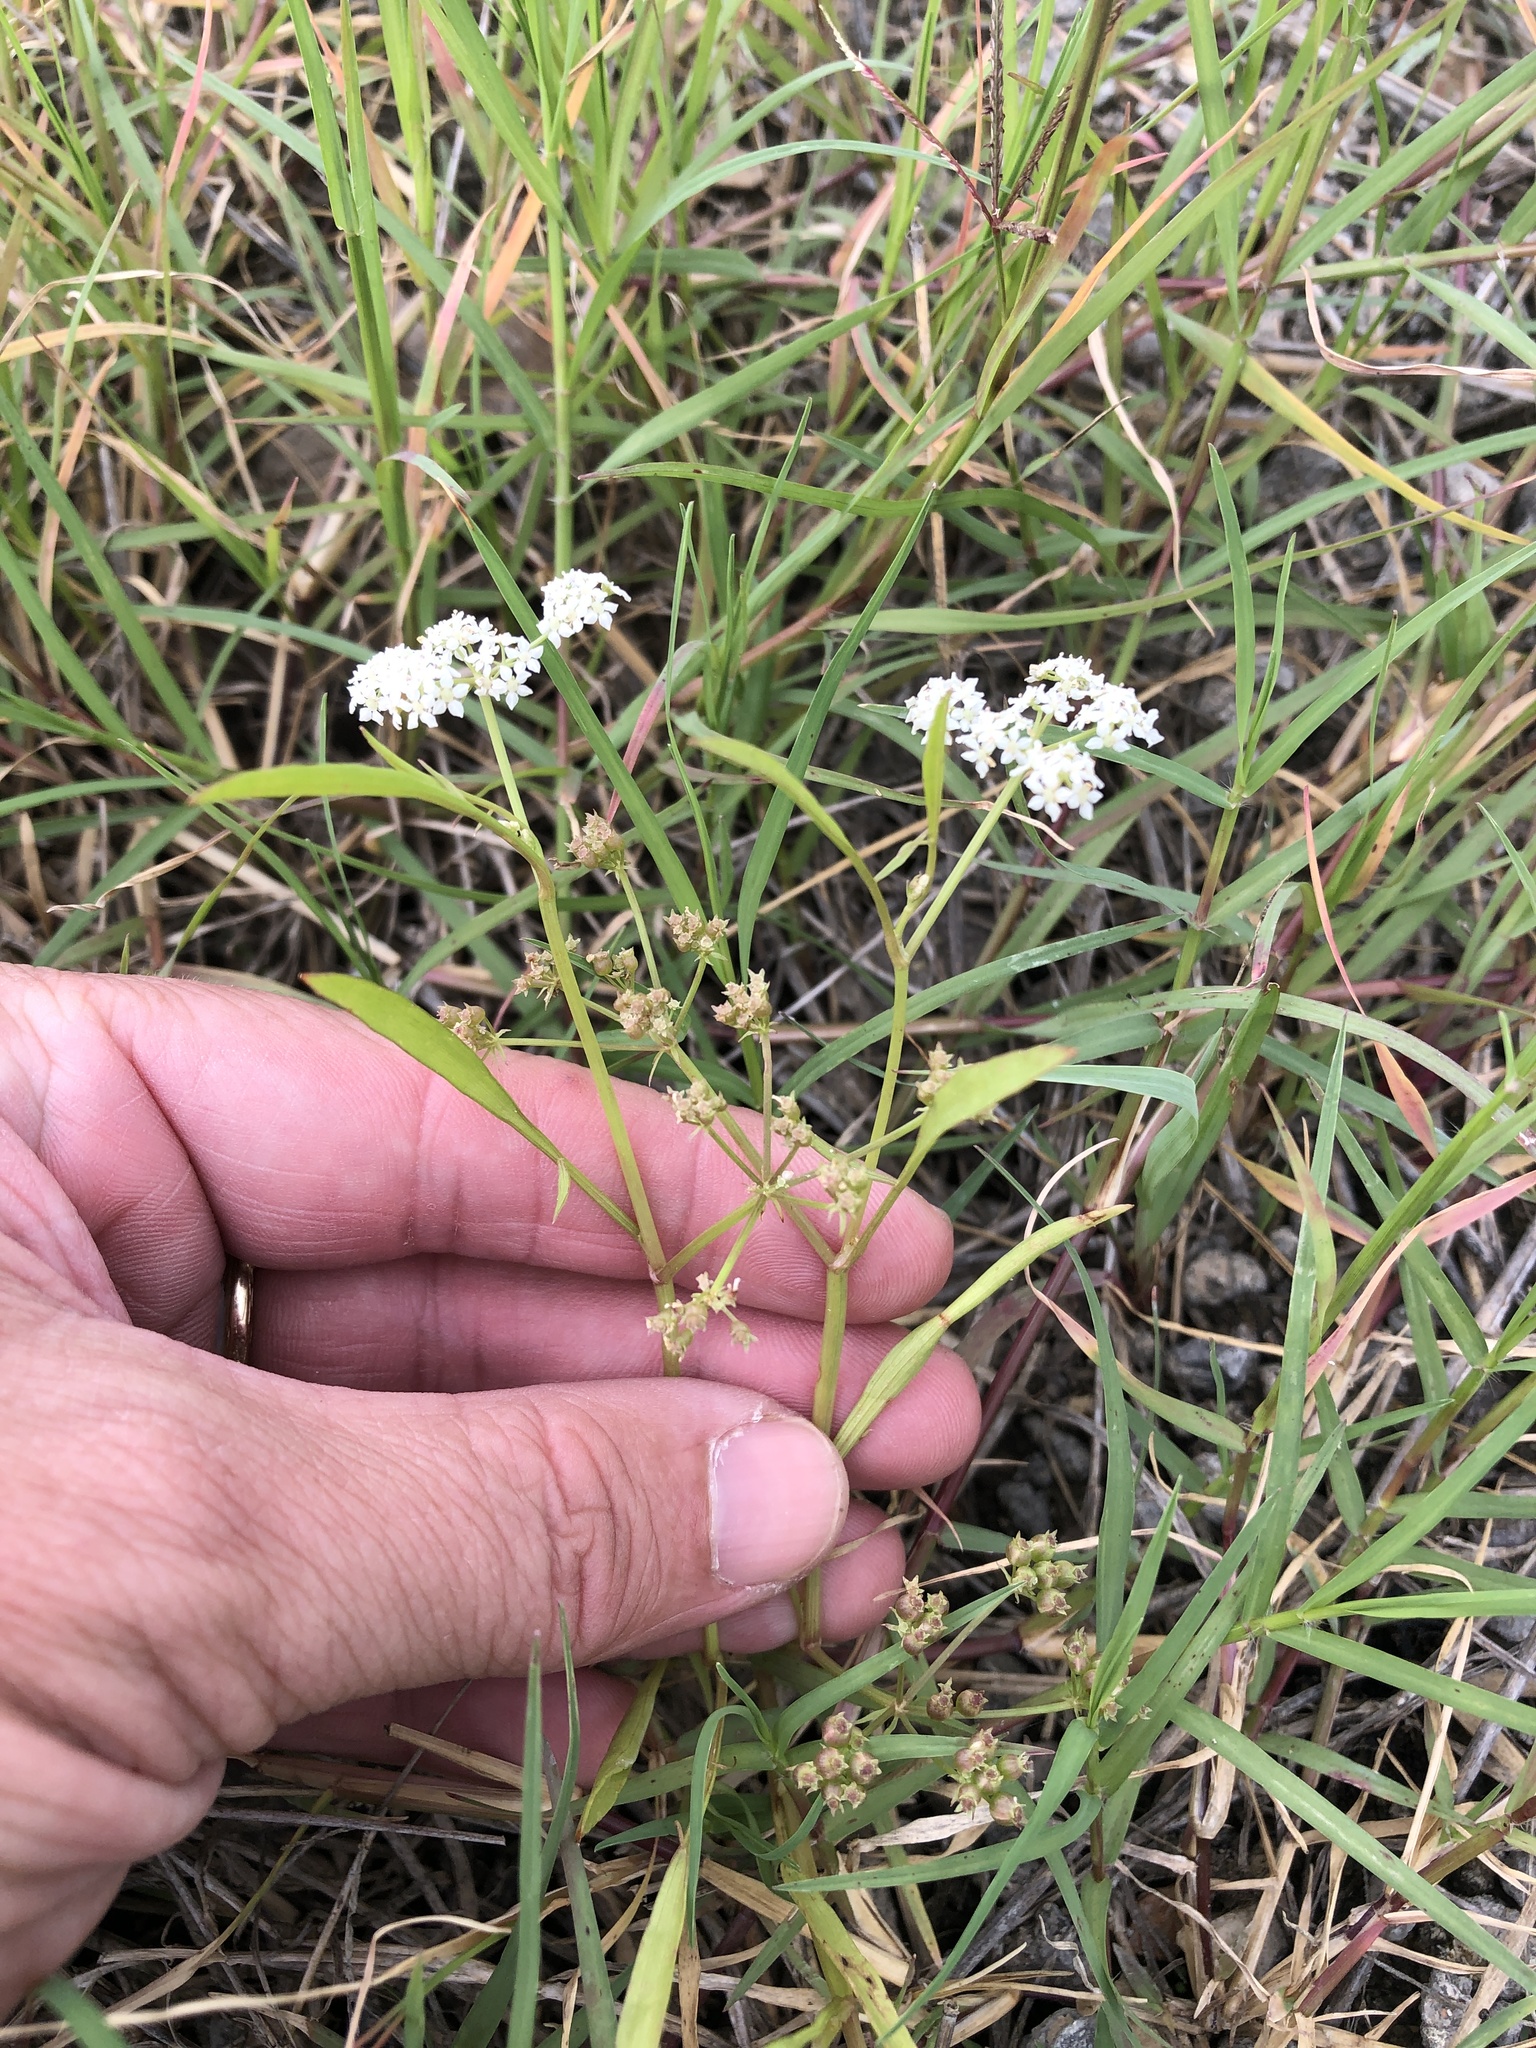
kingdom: Plantae
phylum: Tracheophyta
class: Magnoliopsida
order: Apiales
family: Apiaceae
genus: Limnosciadium
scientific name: Limnosciadium pinnatum
